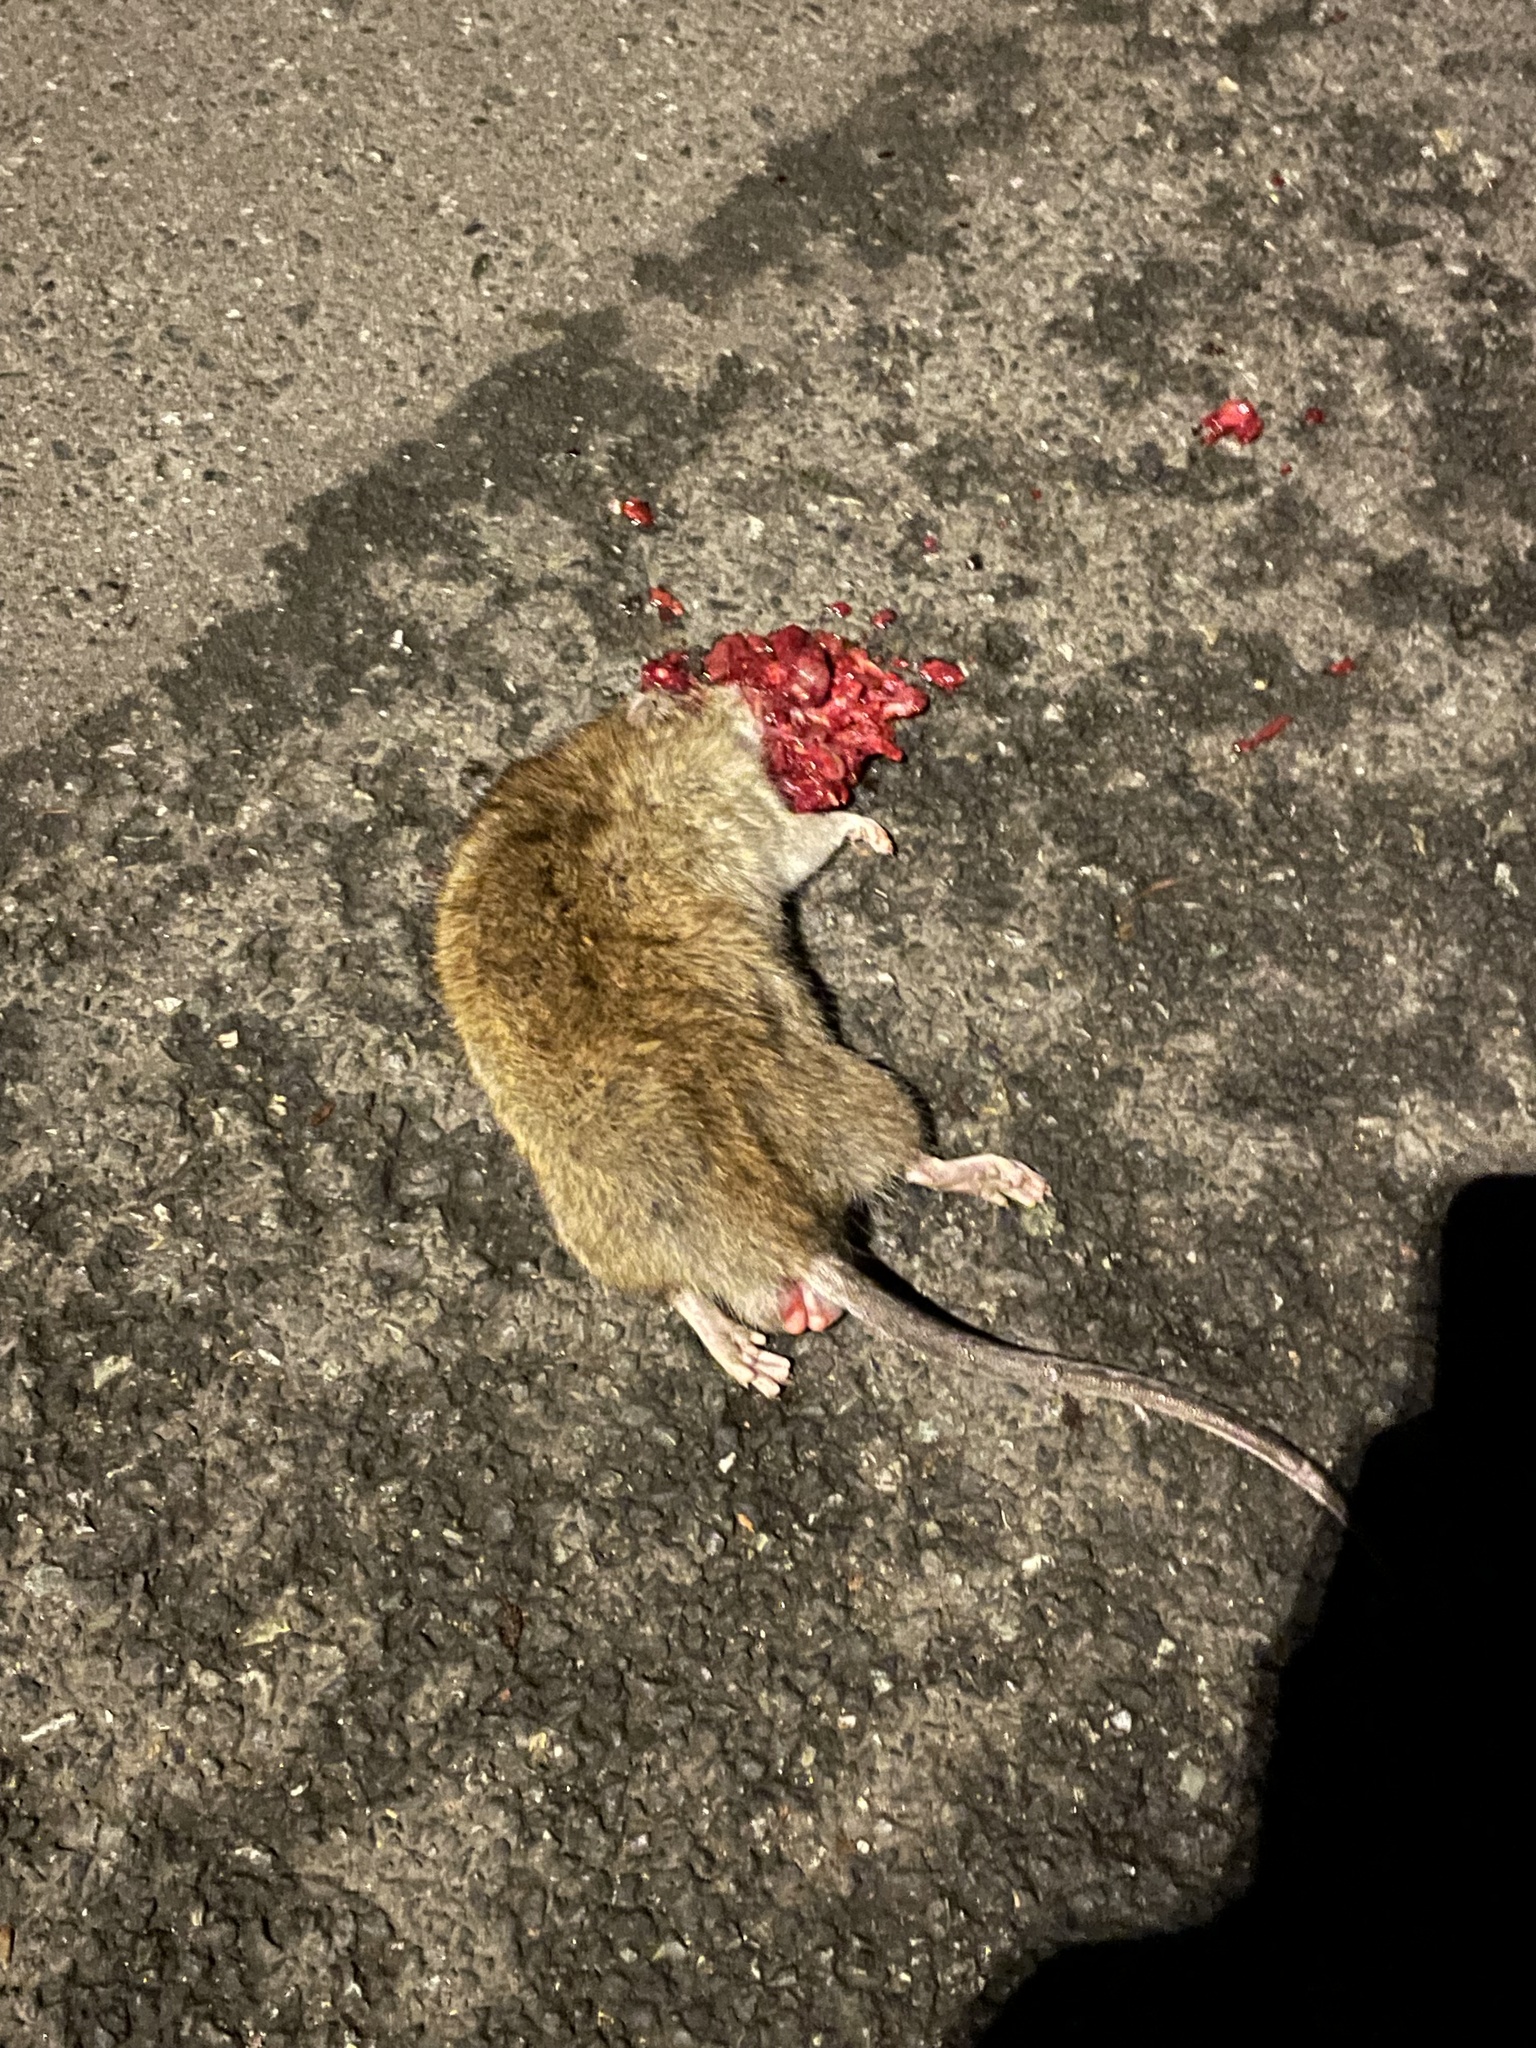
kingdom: Animalia
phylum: Chordata
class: Mammalia
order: Rodentia
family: Muridae
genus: Rattus
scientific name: Rattus norvegicus
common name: Brown rat
